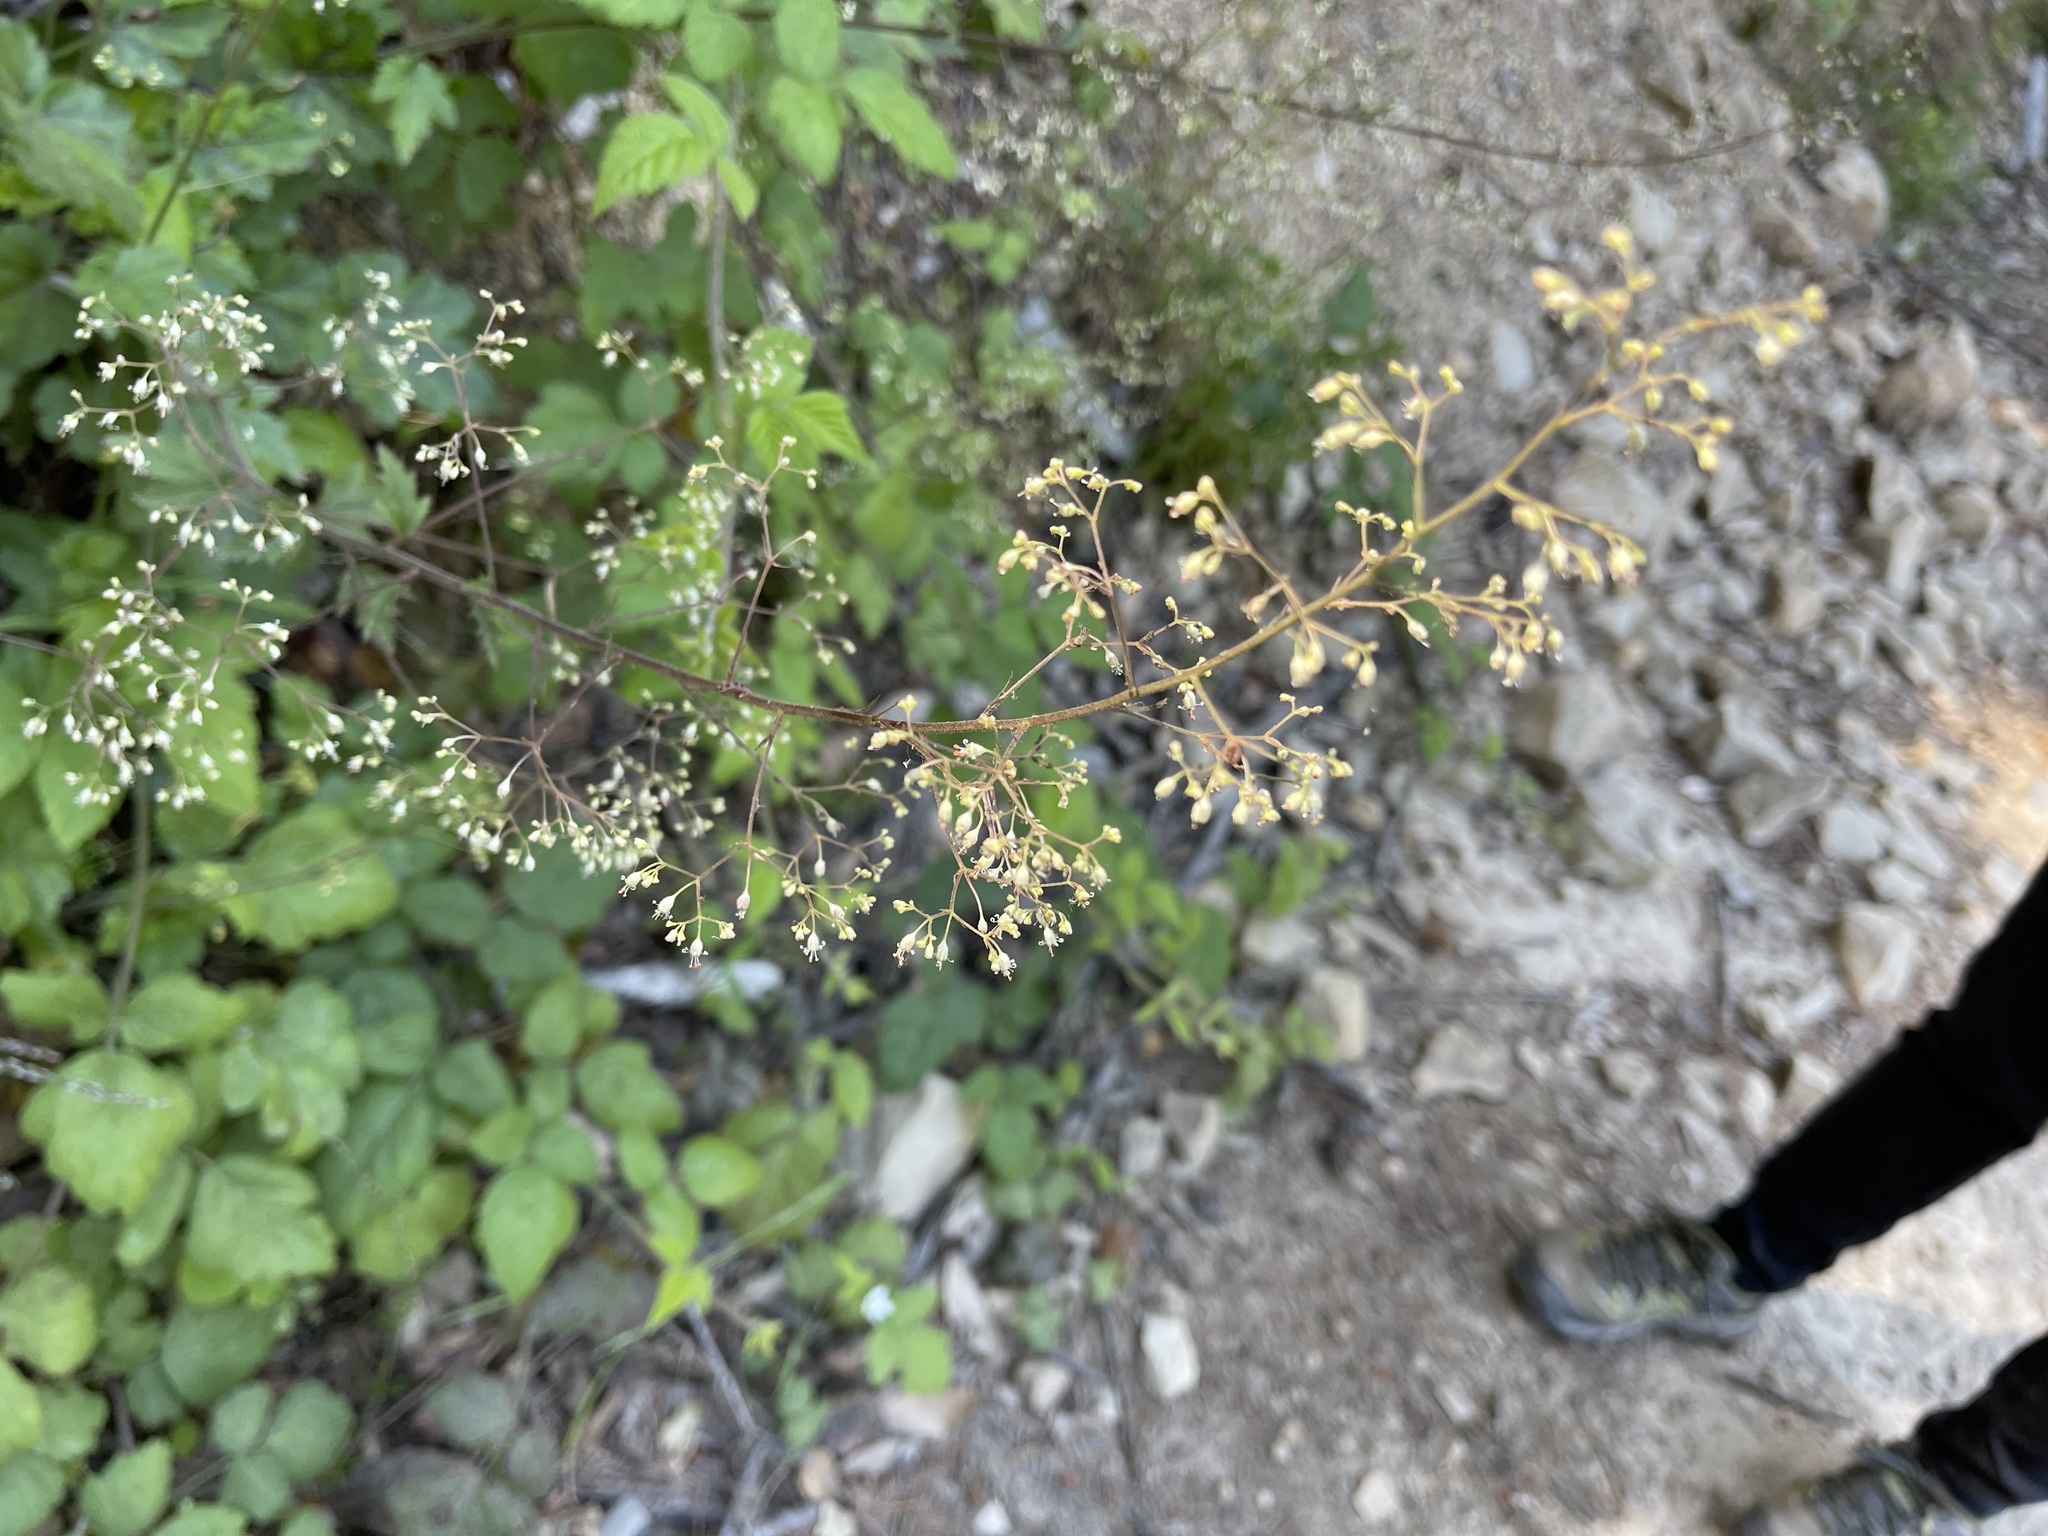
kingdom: Plantae
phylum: Tracheophyta
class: Magnoliopsida
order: Saxifragales
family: Saxifragaceae
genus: Heuchera
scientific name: Heuchera micrantha
